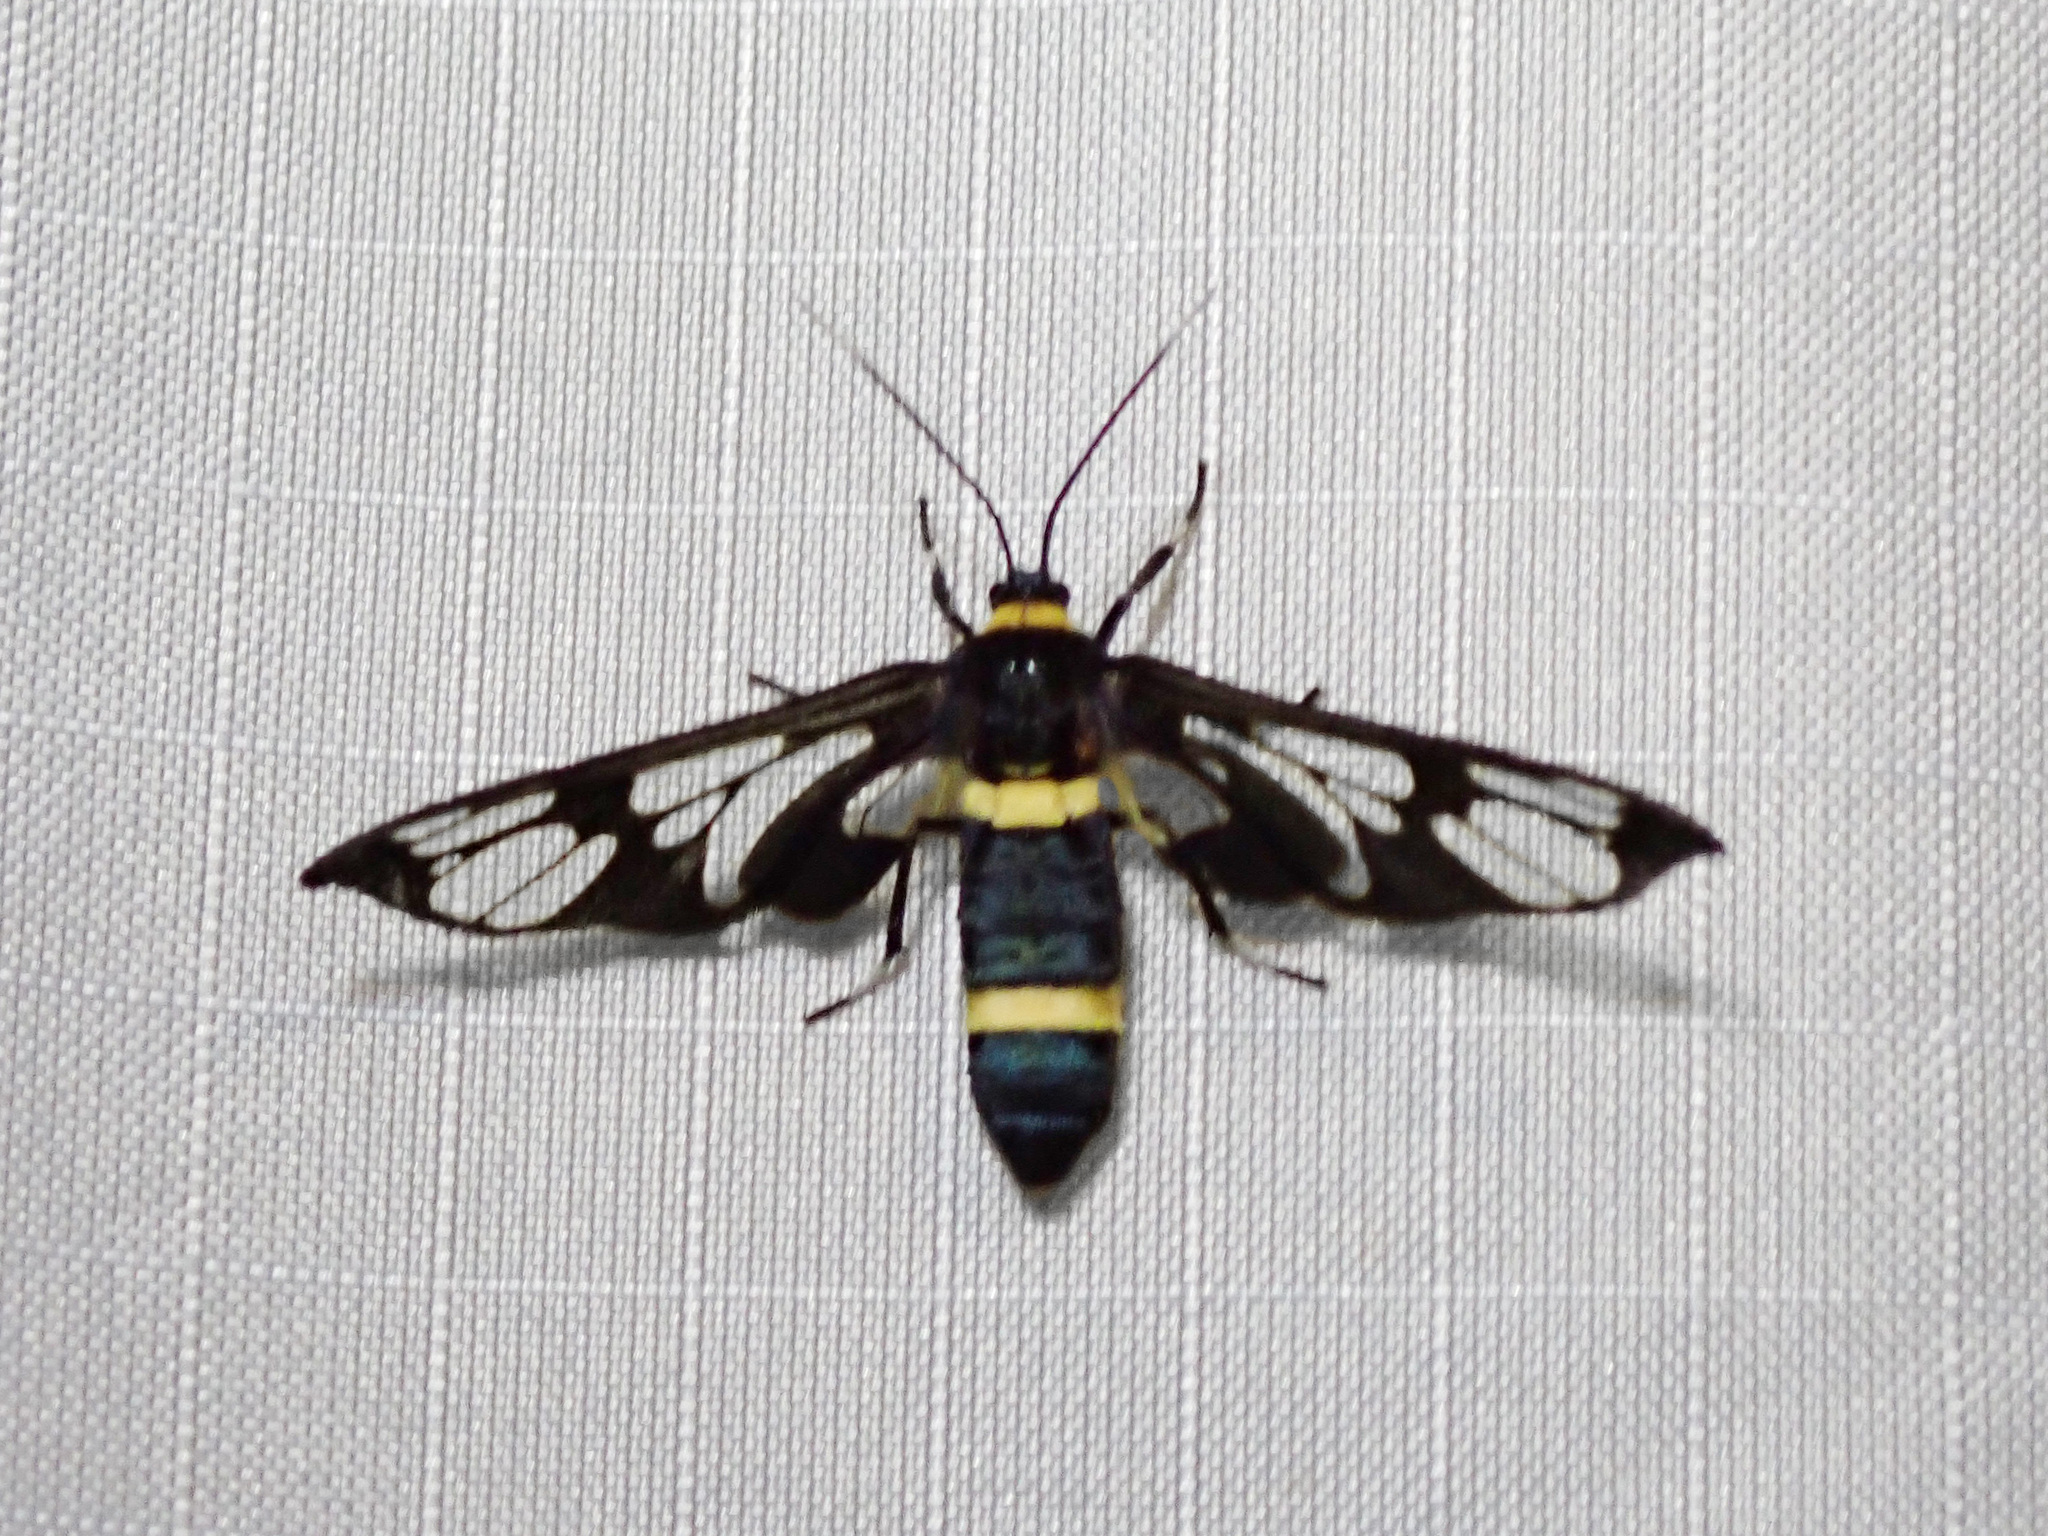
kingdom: Animalia
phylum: Arthropoda
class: Insecta
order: Lepidoptera
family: Erebidae
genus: Syntomoides
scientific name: Syntomoides imaon
